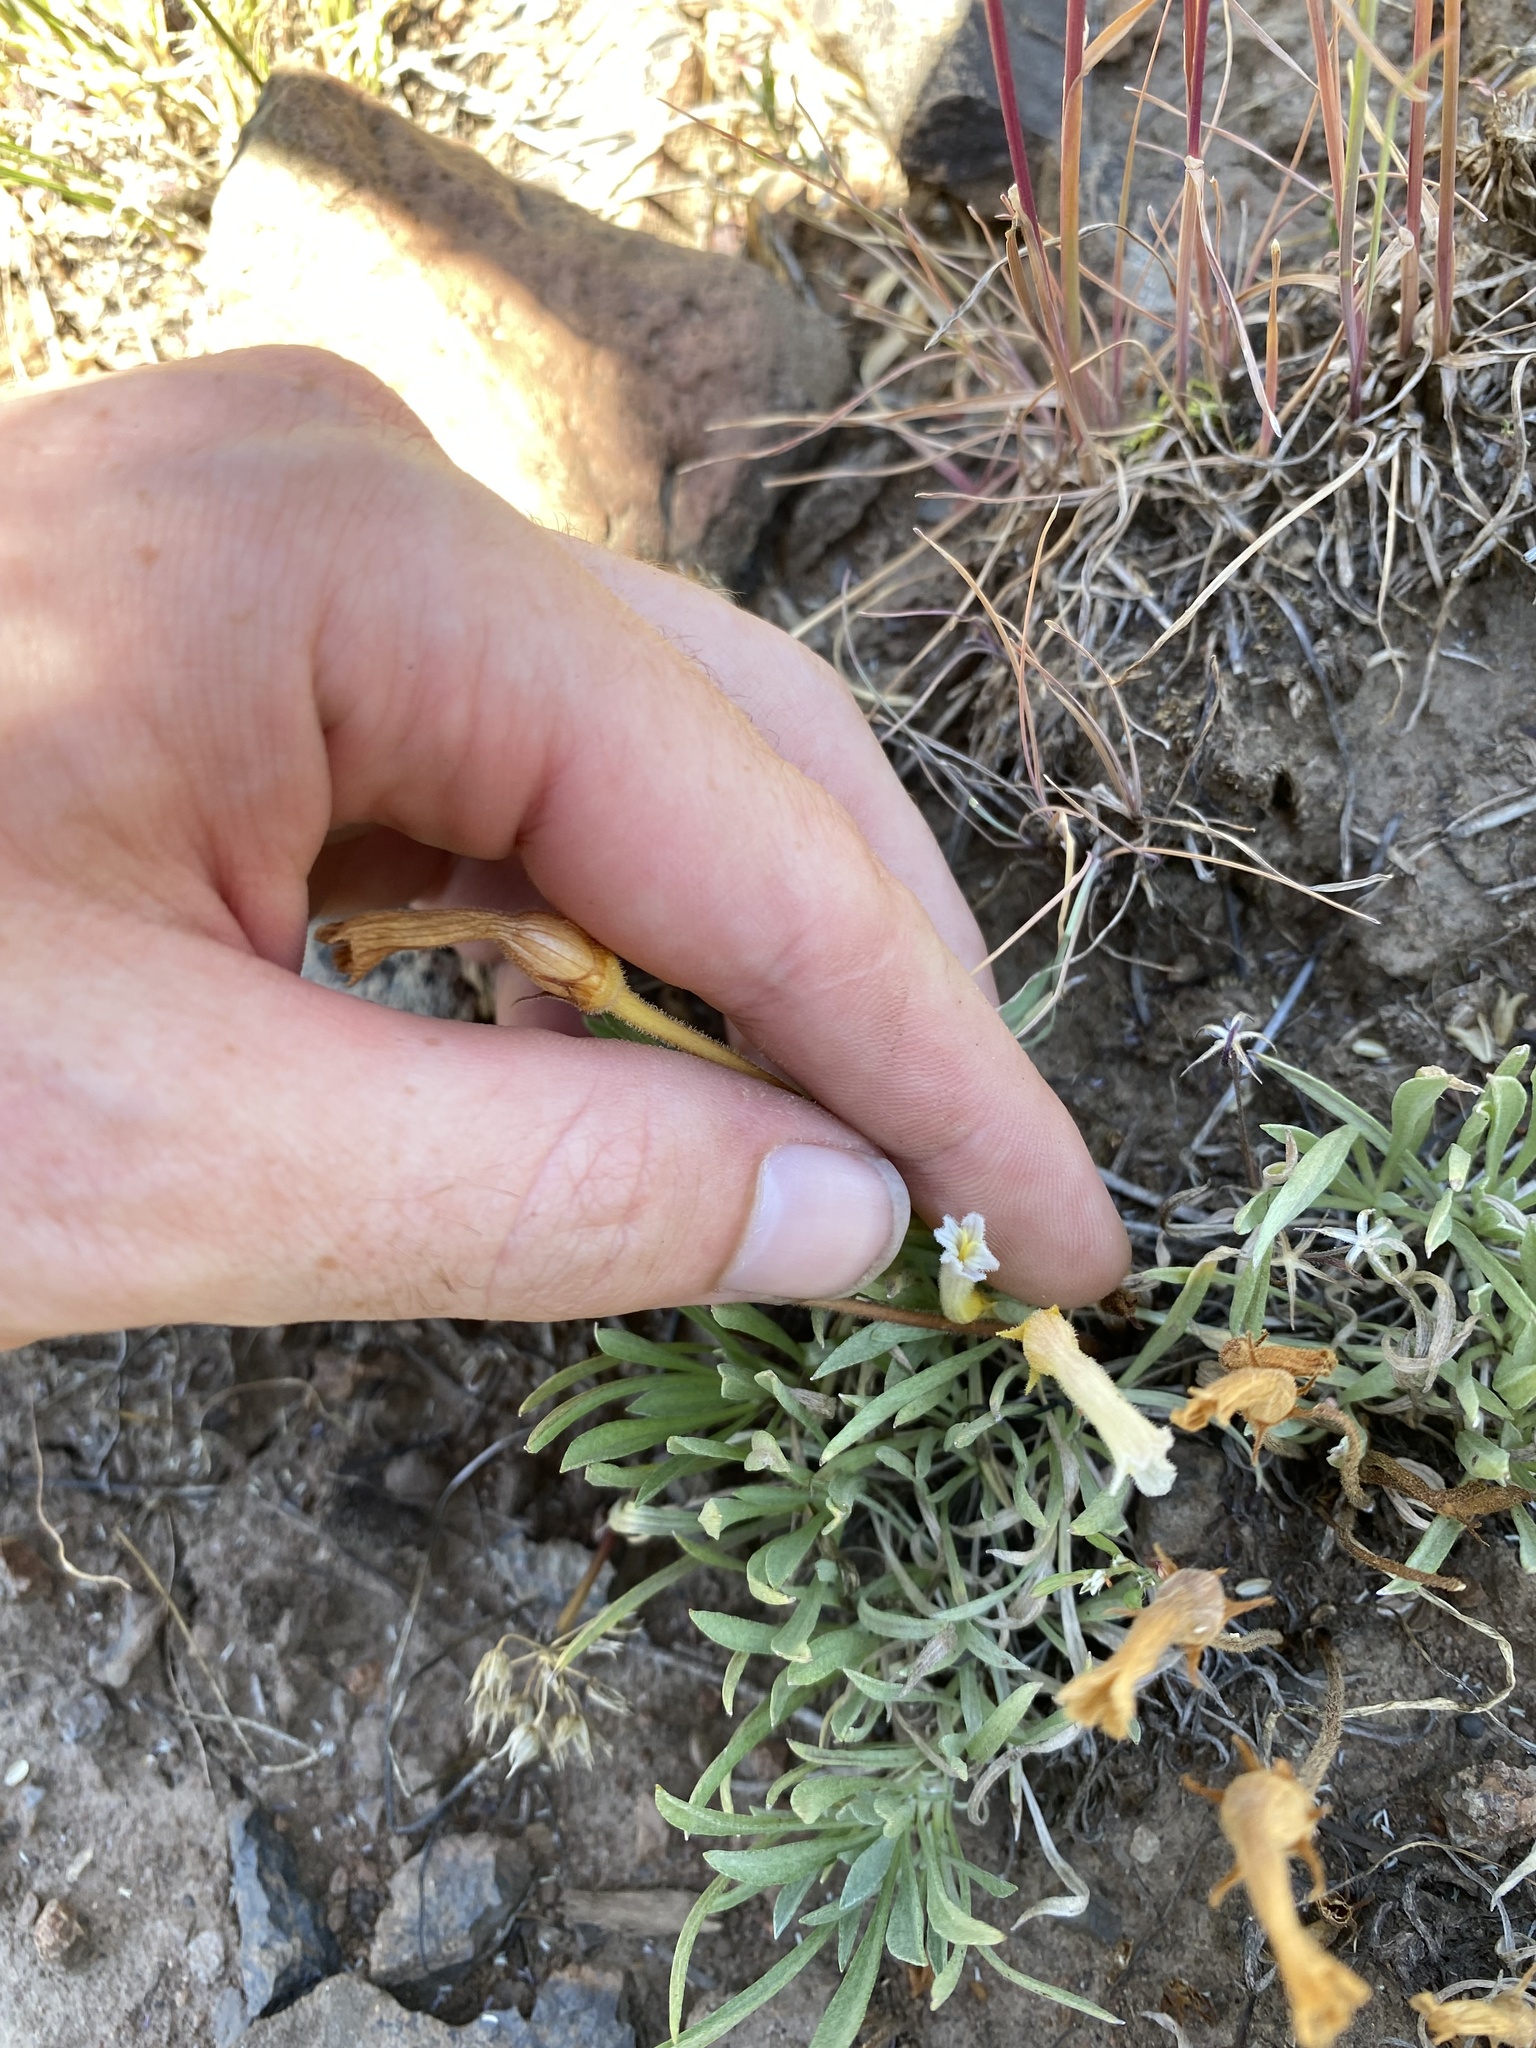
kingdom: Plantae
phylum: Tracheophyta
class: Magnoliopsida
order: Lamiales
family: Orobanchaceae
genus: Aphyllon
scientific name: Aphyllon uniflorum
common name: One-flowered broomrape
